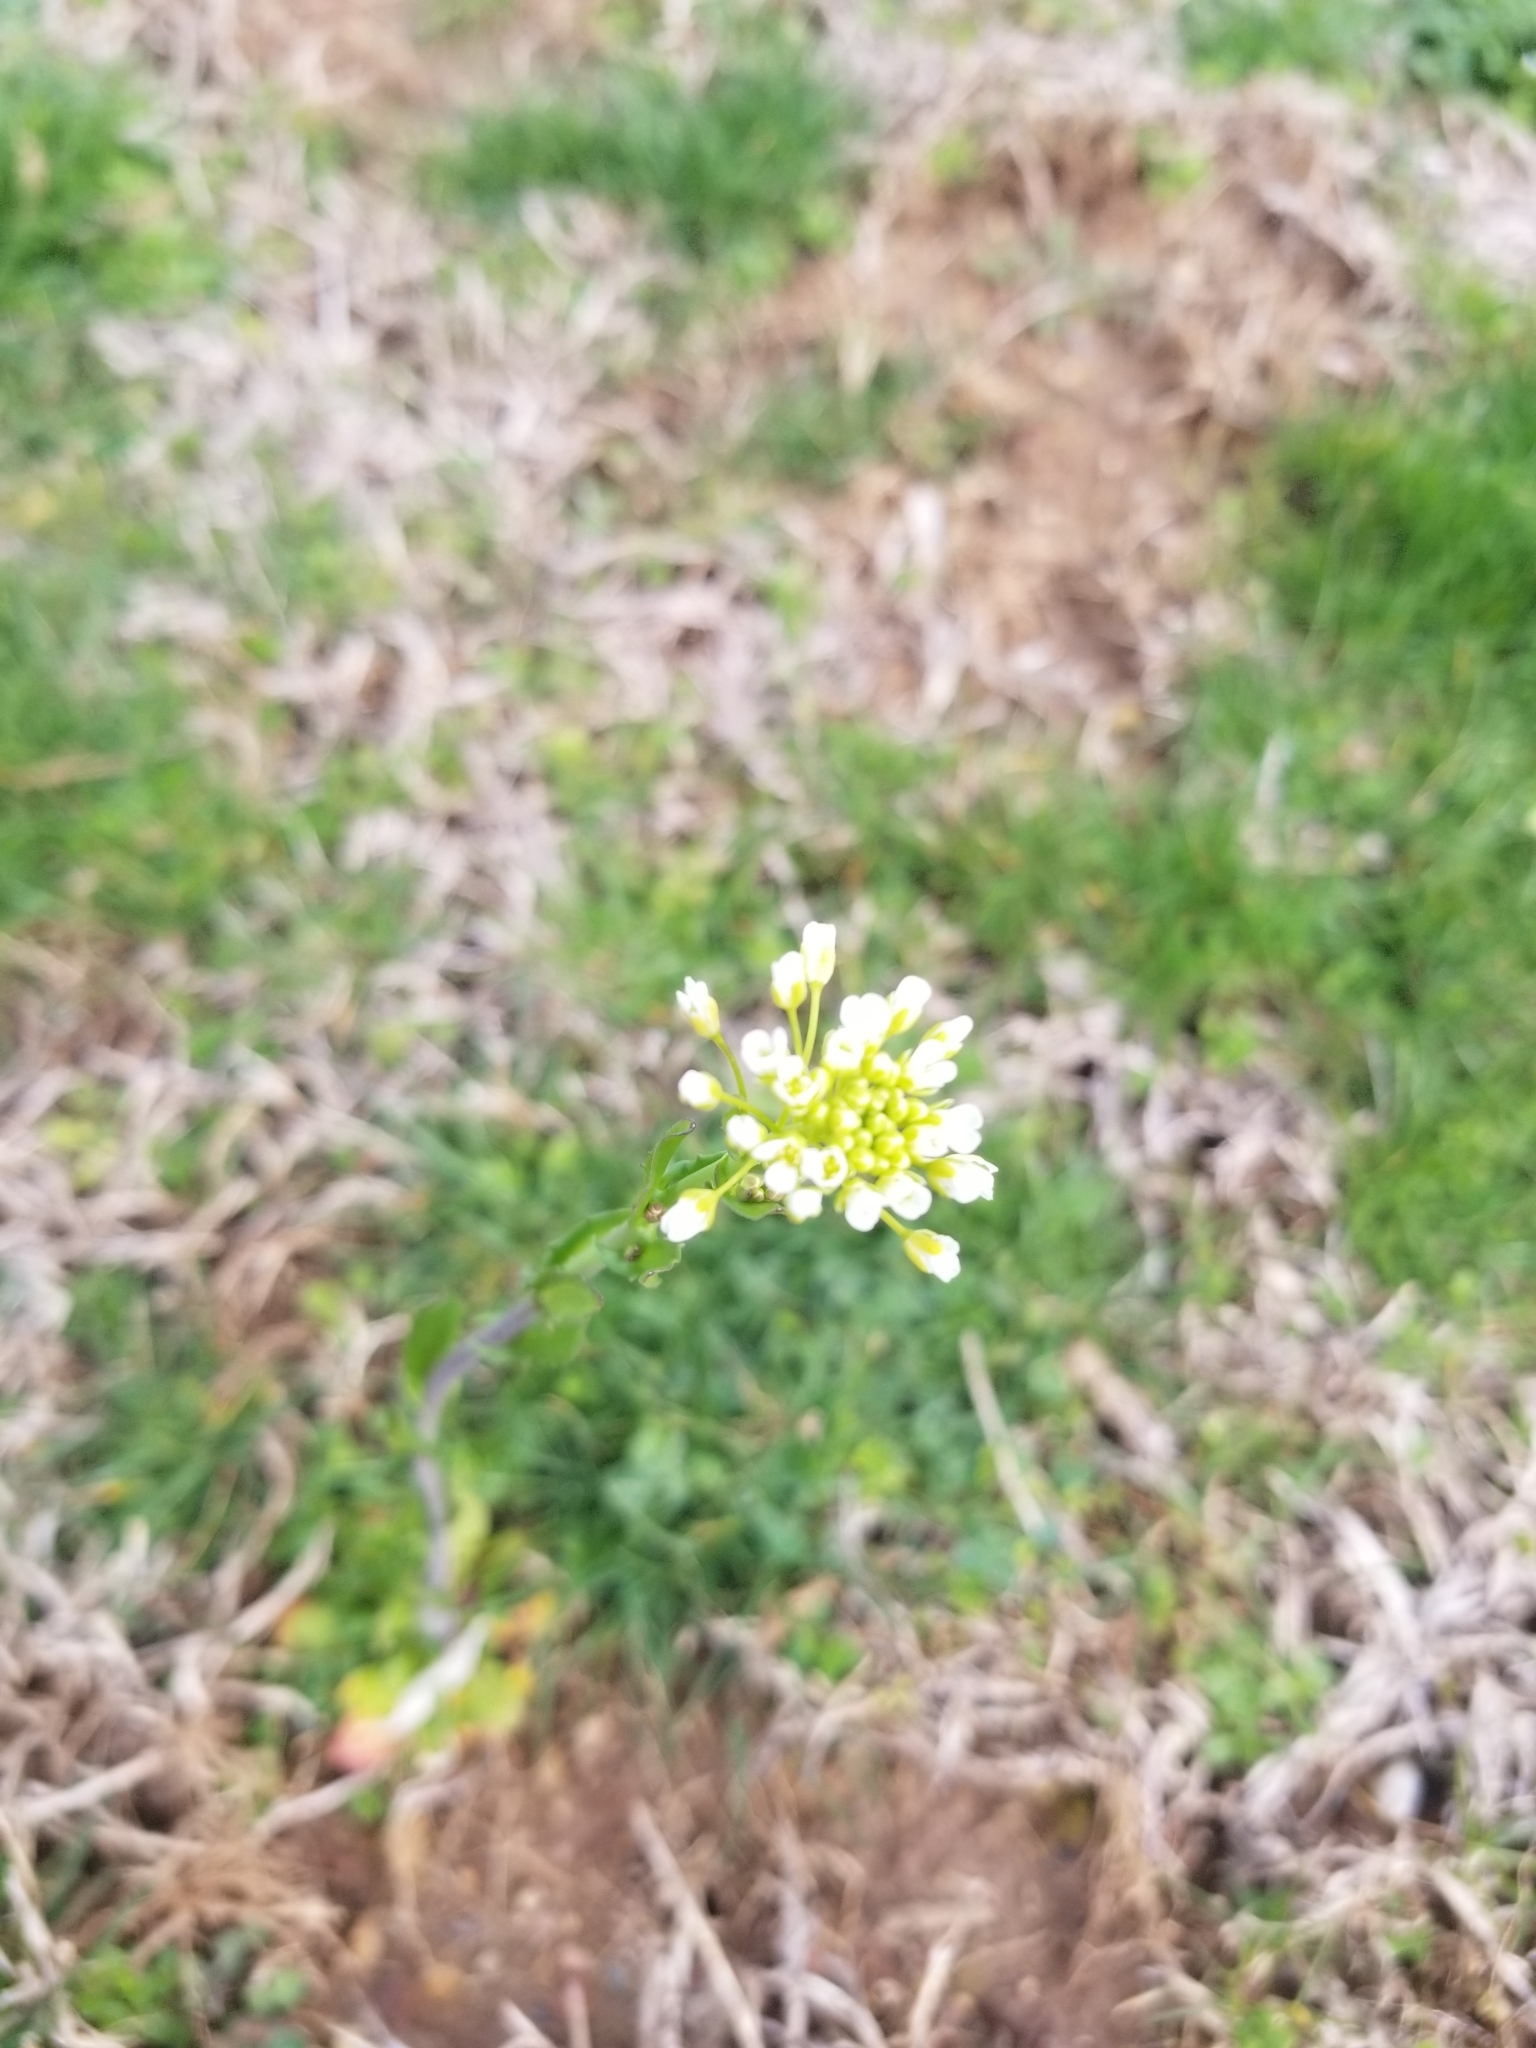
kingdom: Plantae
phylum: Tracheophyta
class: Magnoliopsida
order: Brassicales
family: Brassicaceae
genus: Mummenhoffia
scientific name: Mummenhoffia alliacea
